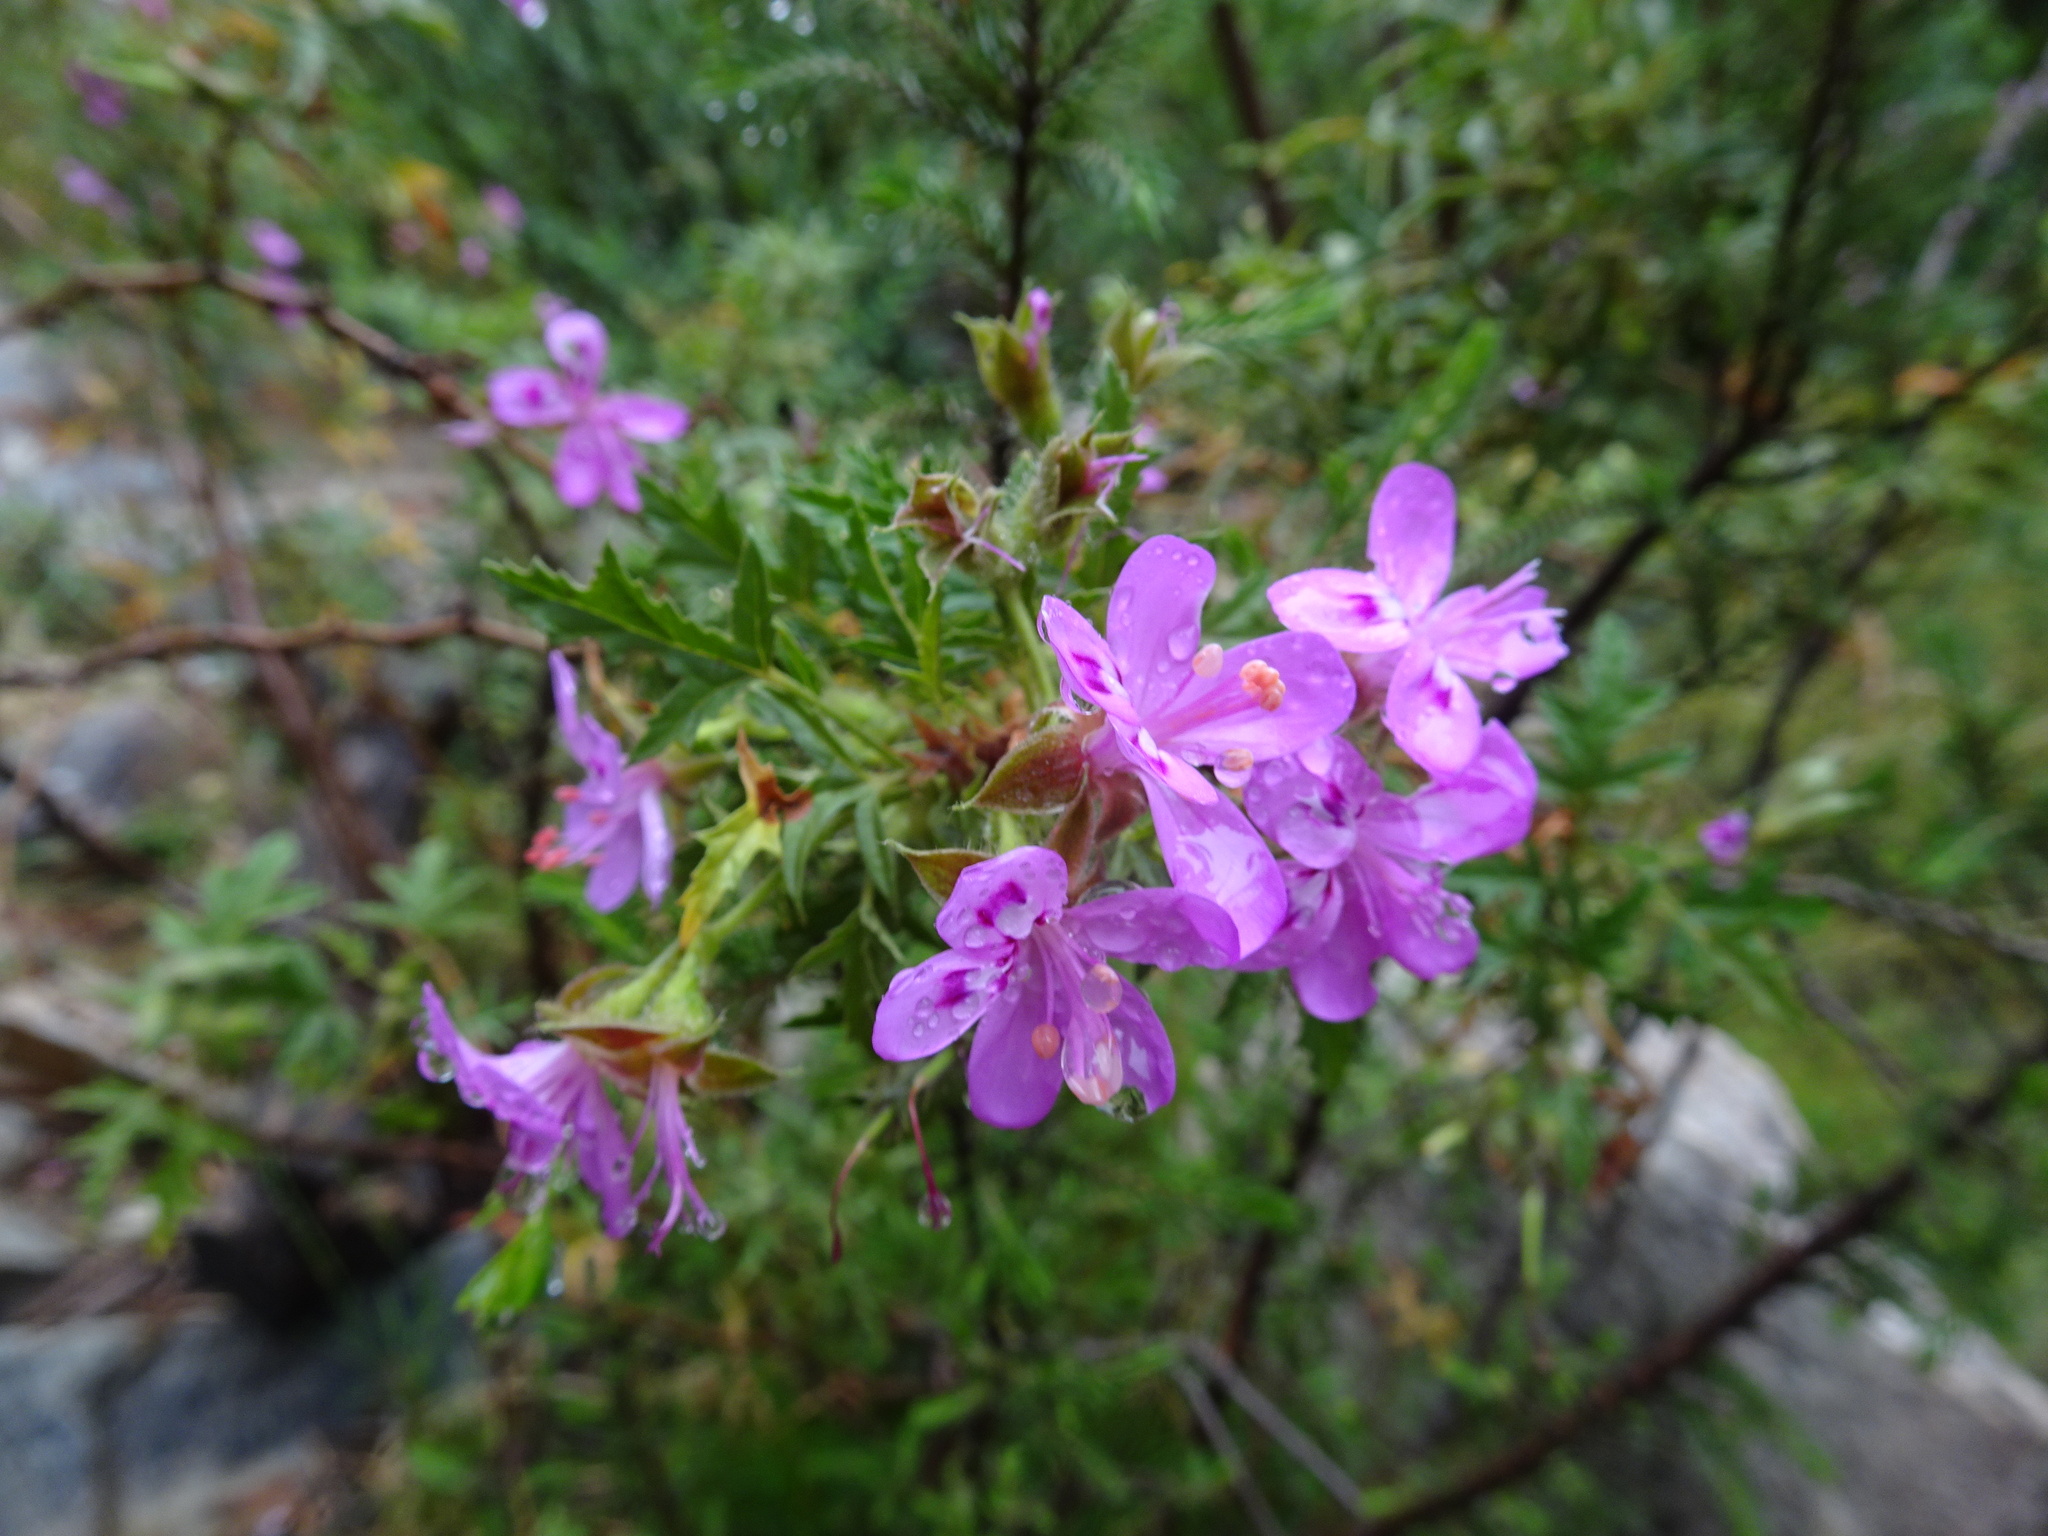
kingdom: Plantae
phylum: Tracheophyta
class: Magnoliopsida
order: Geraniales
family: Geraniaceae
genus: Pelargonium
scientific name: Pelargonium glutinosum
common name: Pheasant-foot geranium
